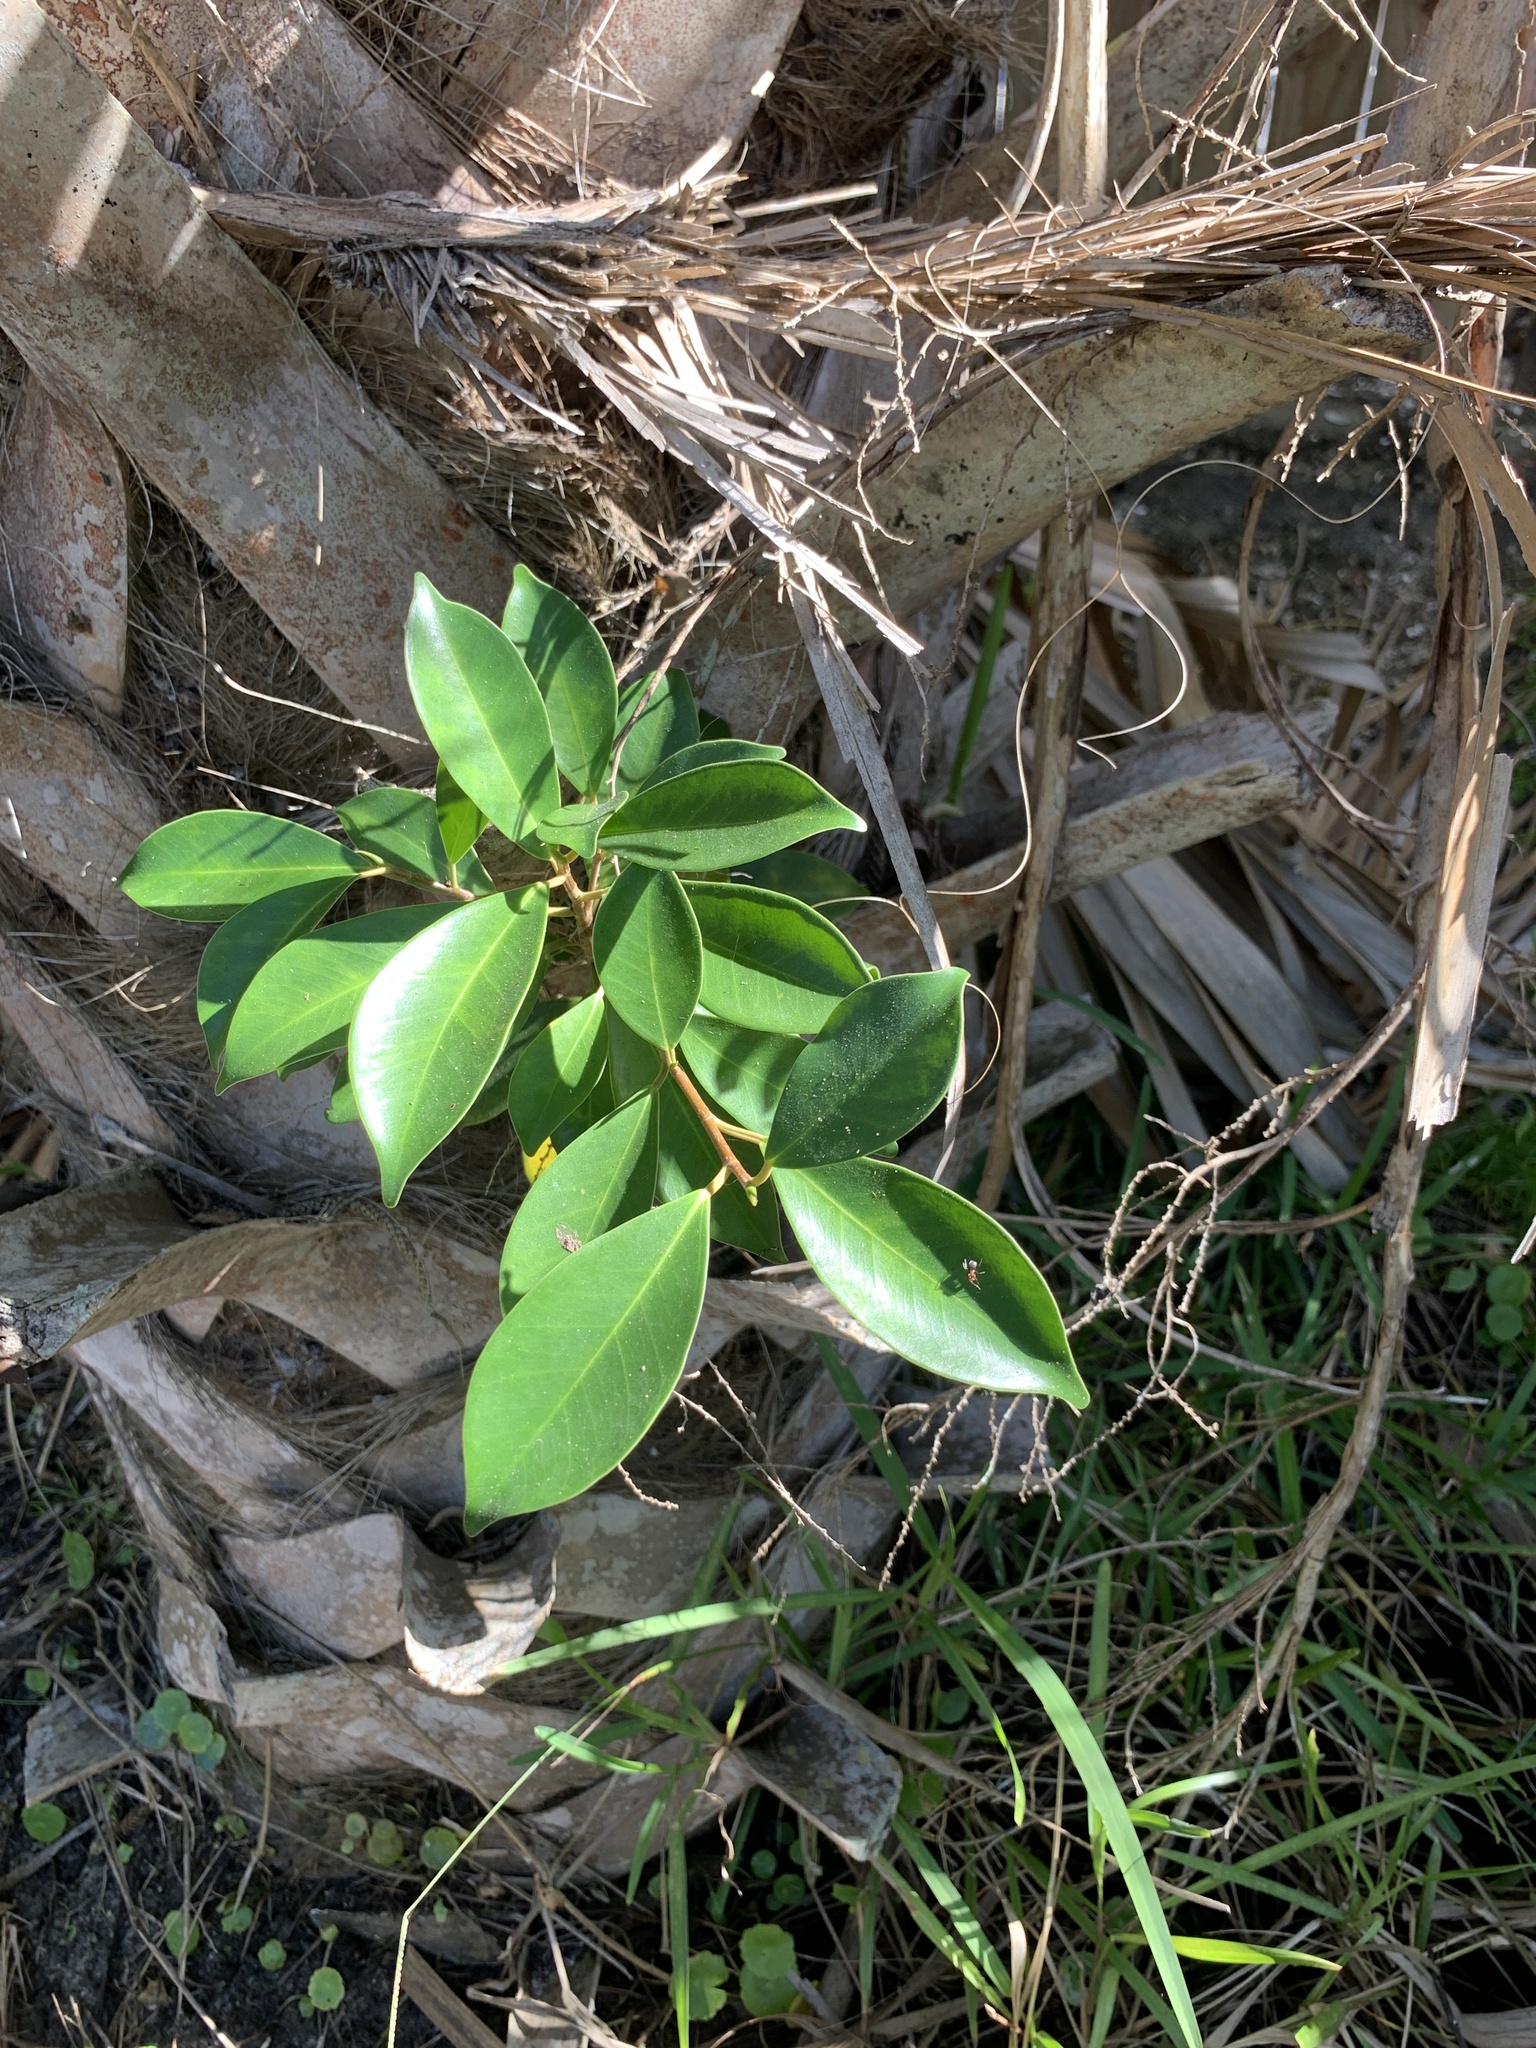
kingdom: Plantae
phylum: Tracheophyta
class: Magnoliopsida
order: Rosales
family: Moraceae
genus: Ficus
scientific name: Ficus microcarpa
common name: Chinese banyan
